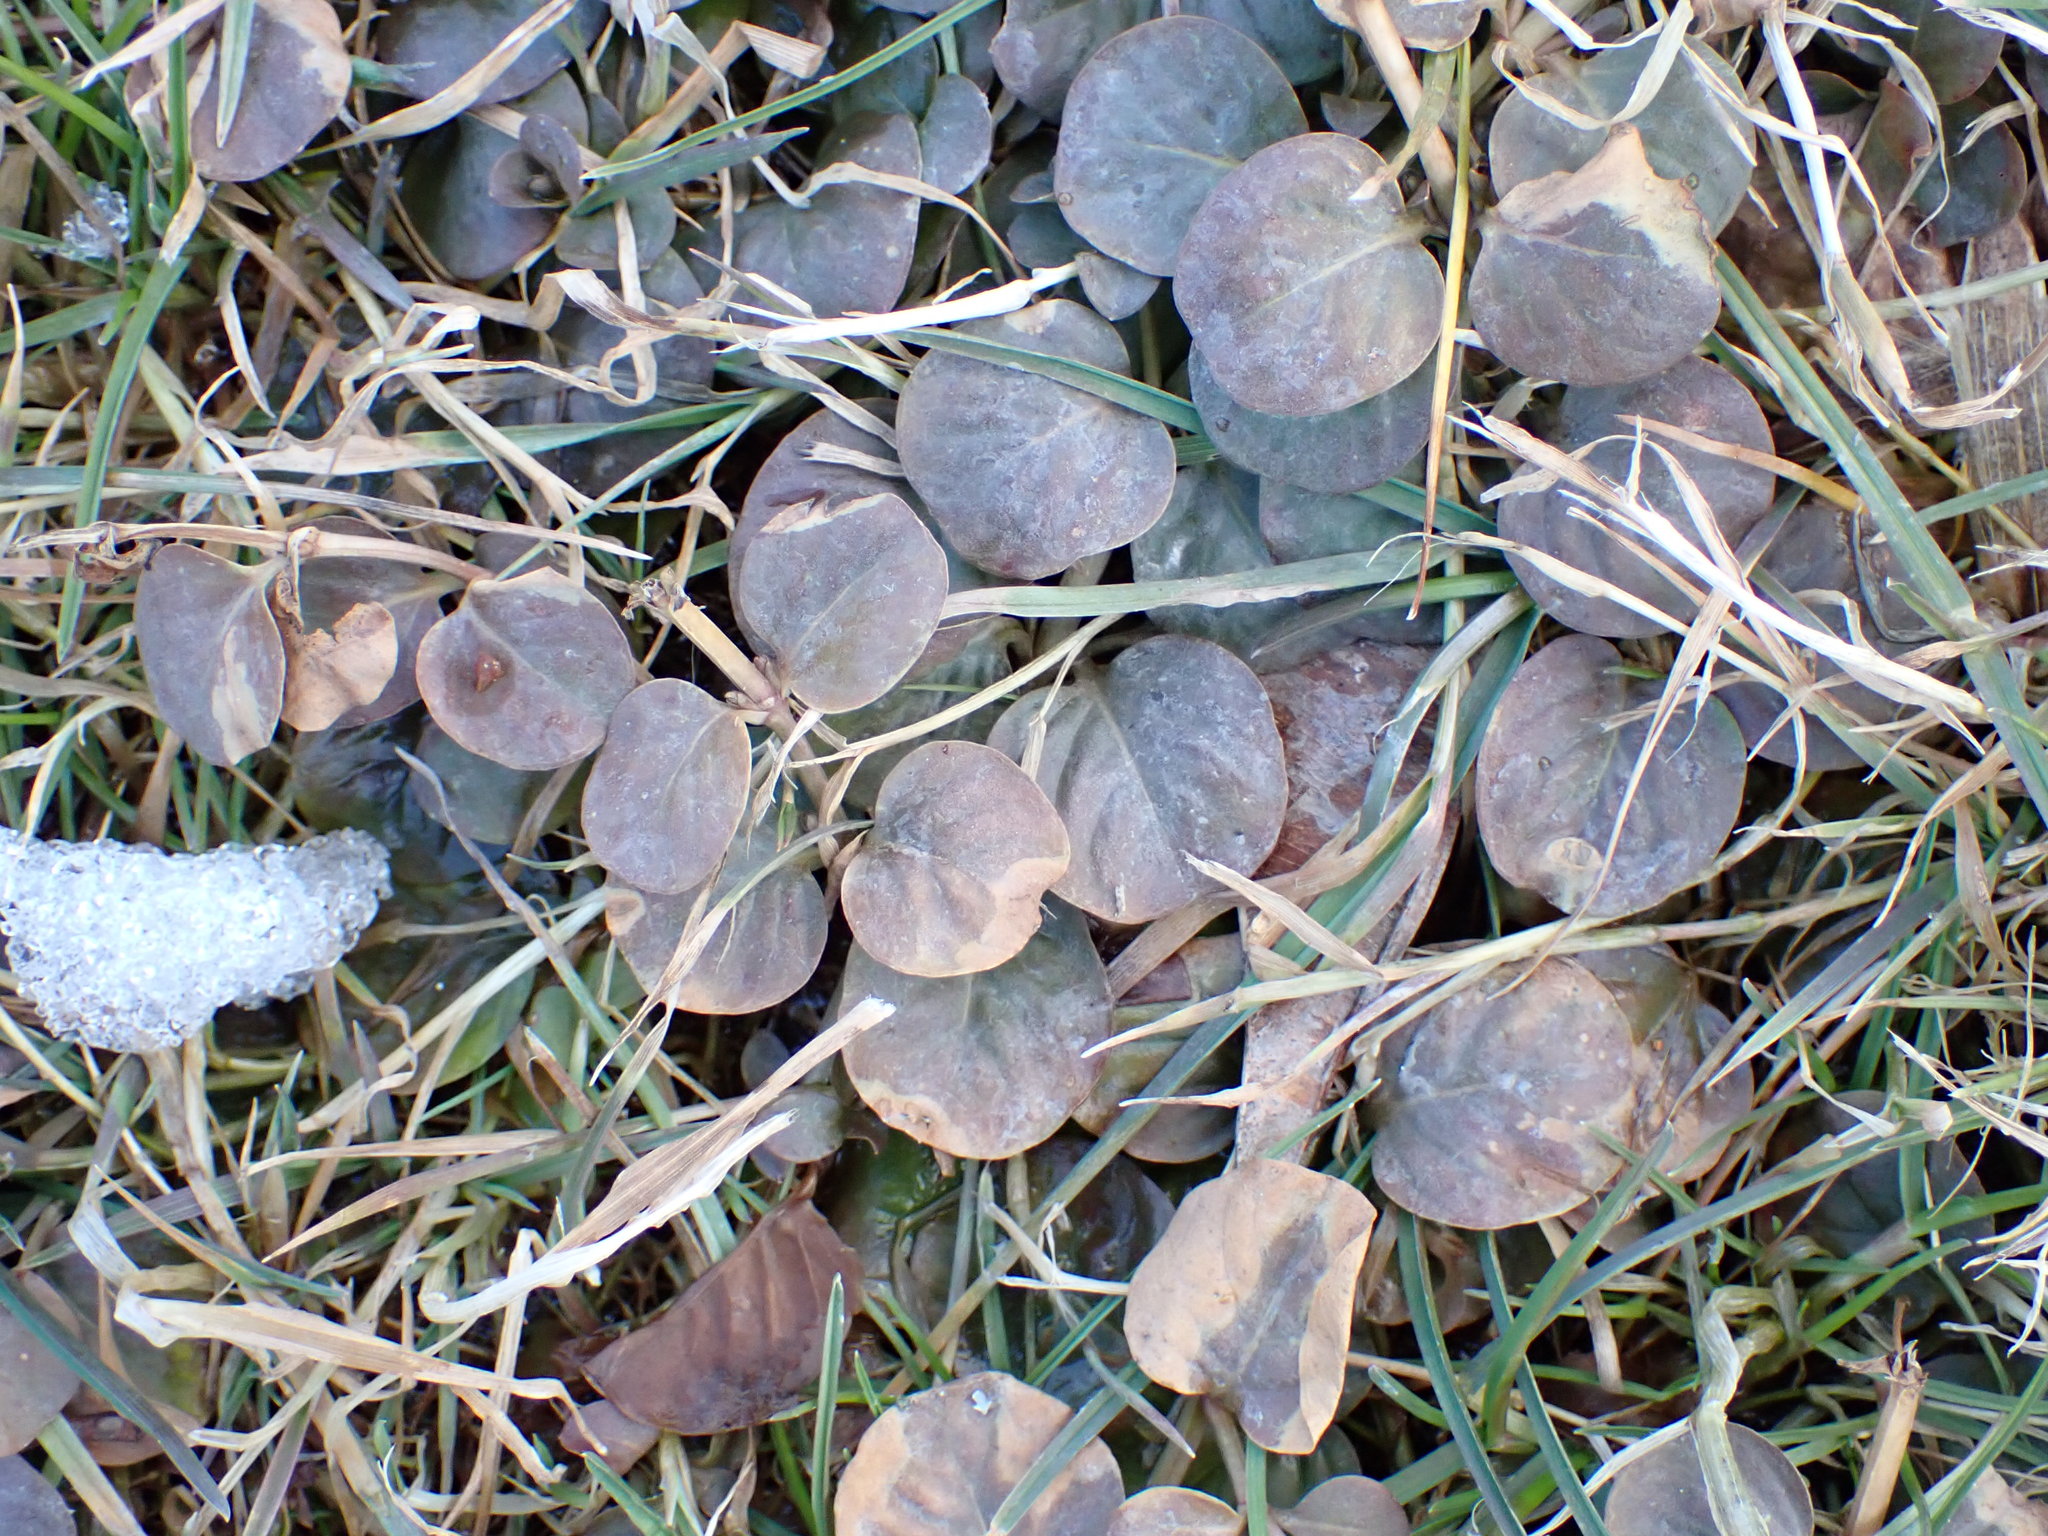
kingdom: Plantae
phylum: Tracheophyta
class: Magnoliopsida
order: Ericales
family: Primulaceae
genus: Lysimachia
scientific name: Lysimachia nummularia
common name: Moneywort
